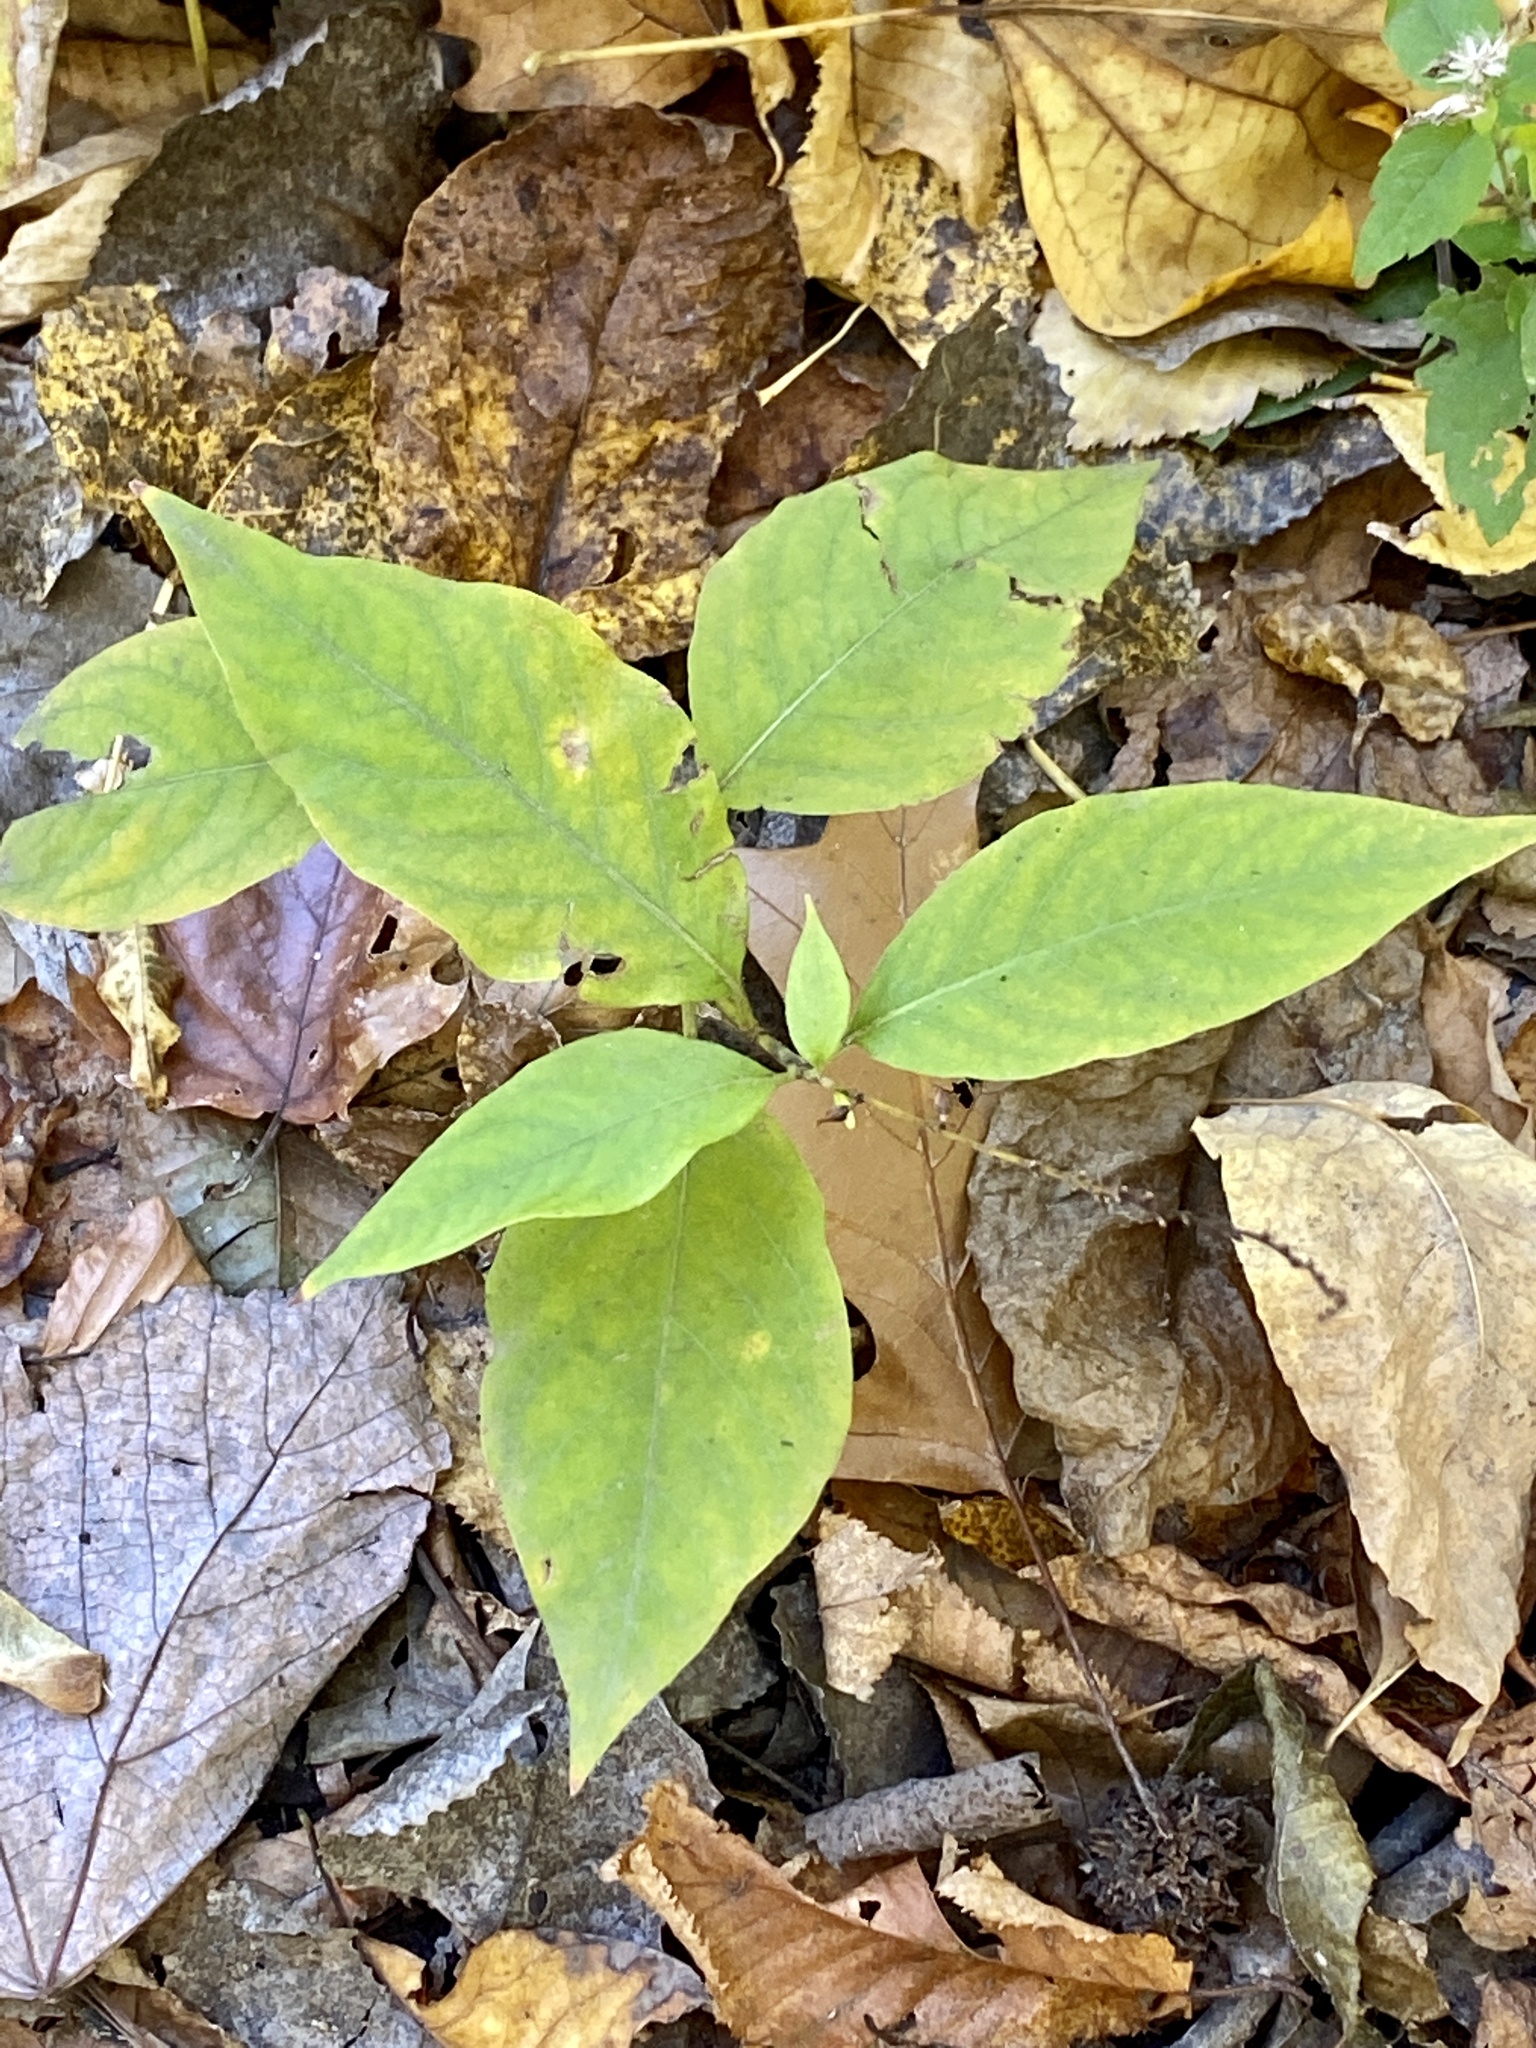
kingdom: Plantae
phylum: Tracheophyta
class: Magnoliopsida
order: Caryophyllales
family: Polygonaceae
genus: Persicaria
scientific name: Persicaria virginiana
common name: Jumpseed
